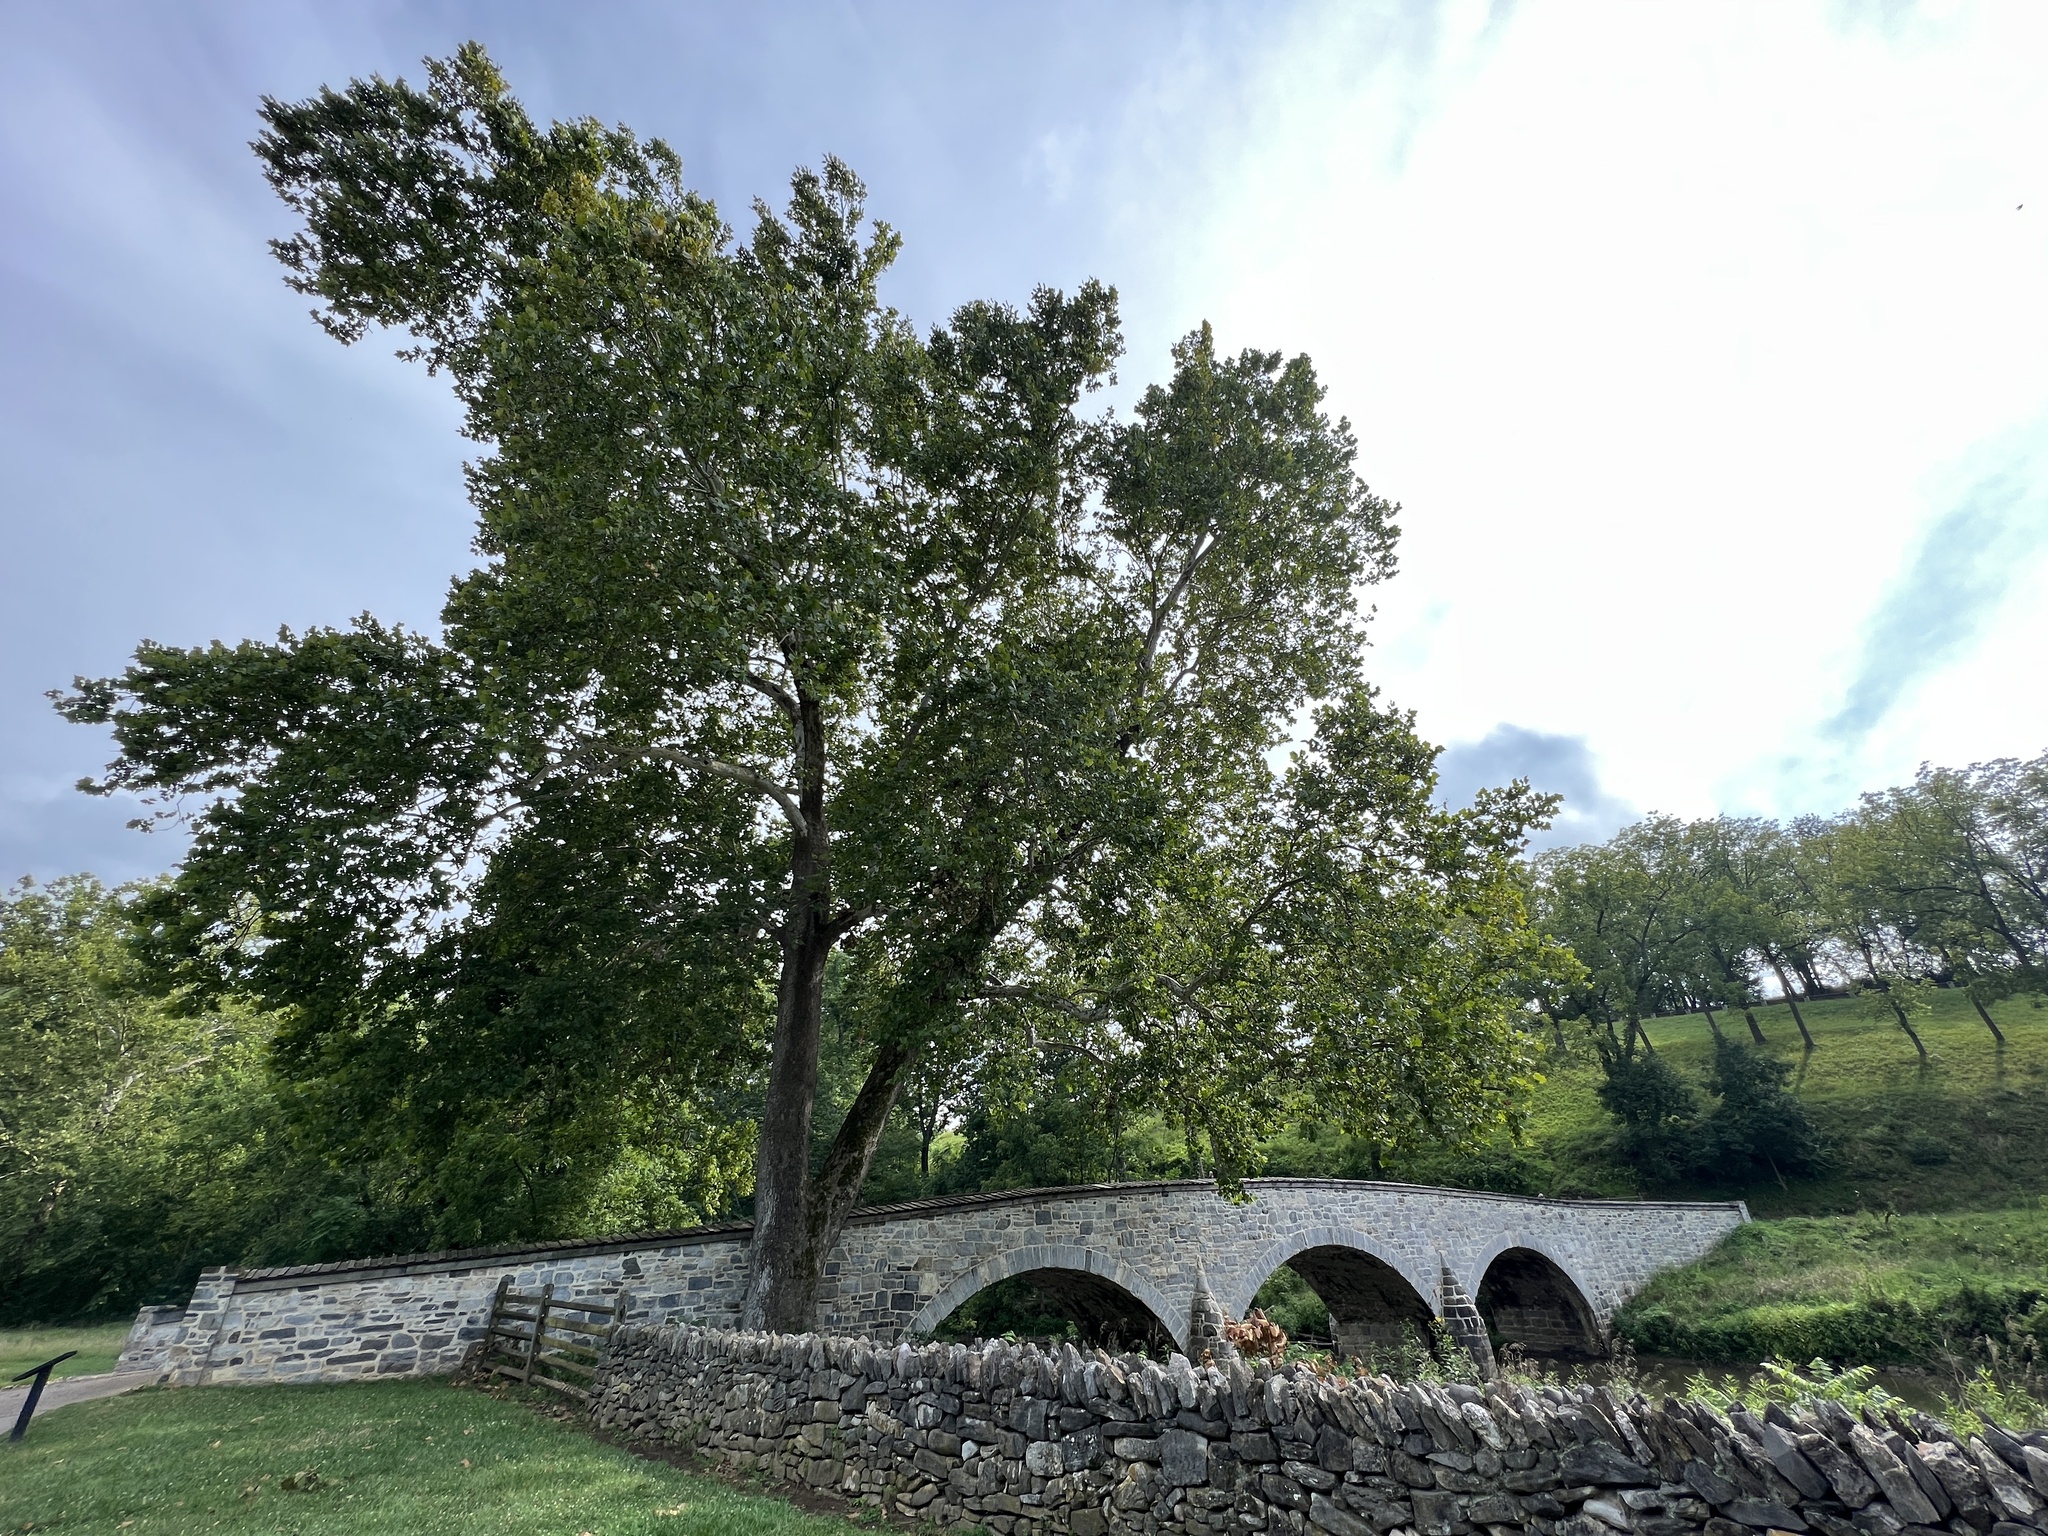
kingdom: Plantae
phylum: Tracheophyta
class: Magnoliopsida
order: Proteales
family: Platanaceae
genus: Platanus
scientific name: Platanus occidentalis
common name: American sycamore
